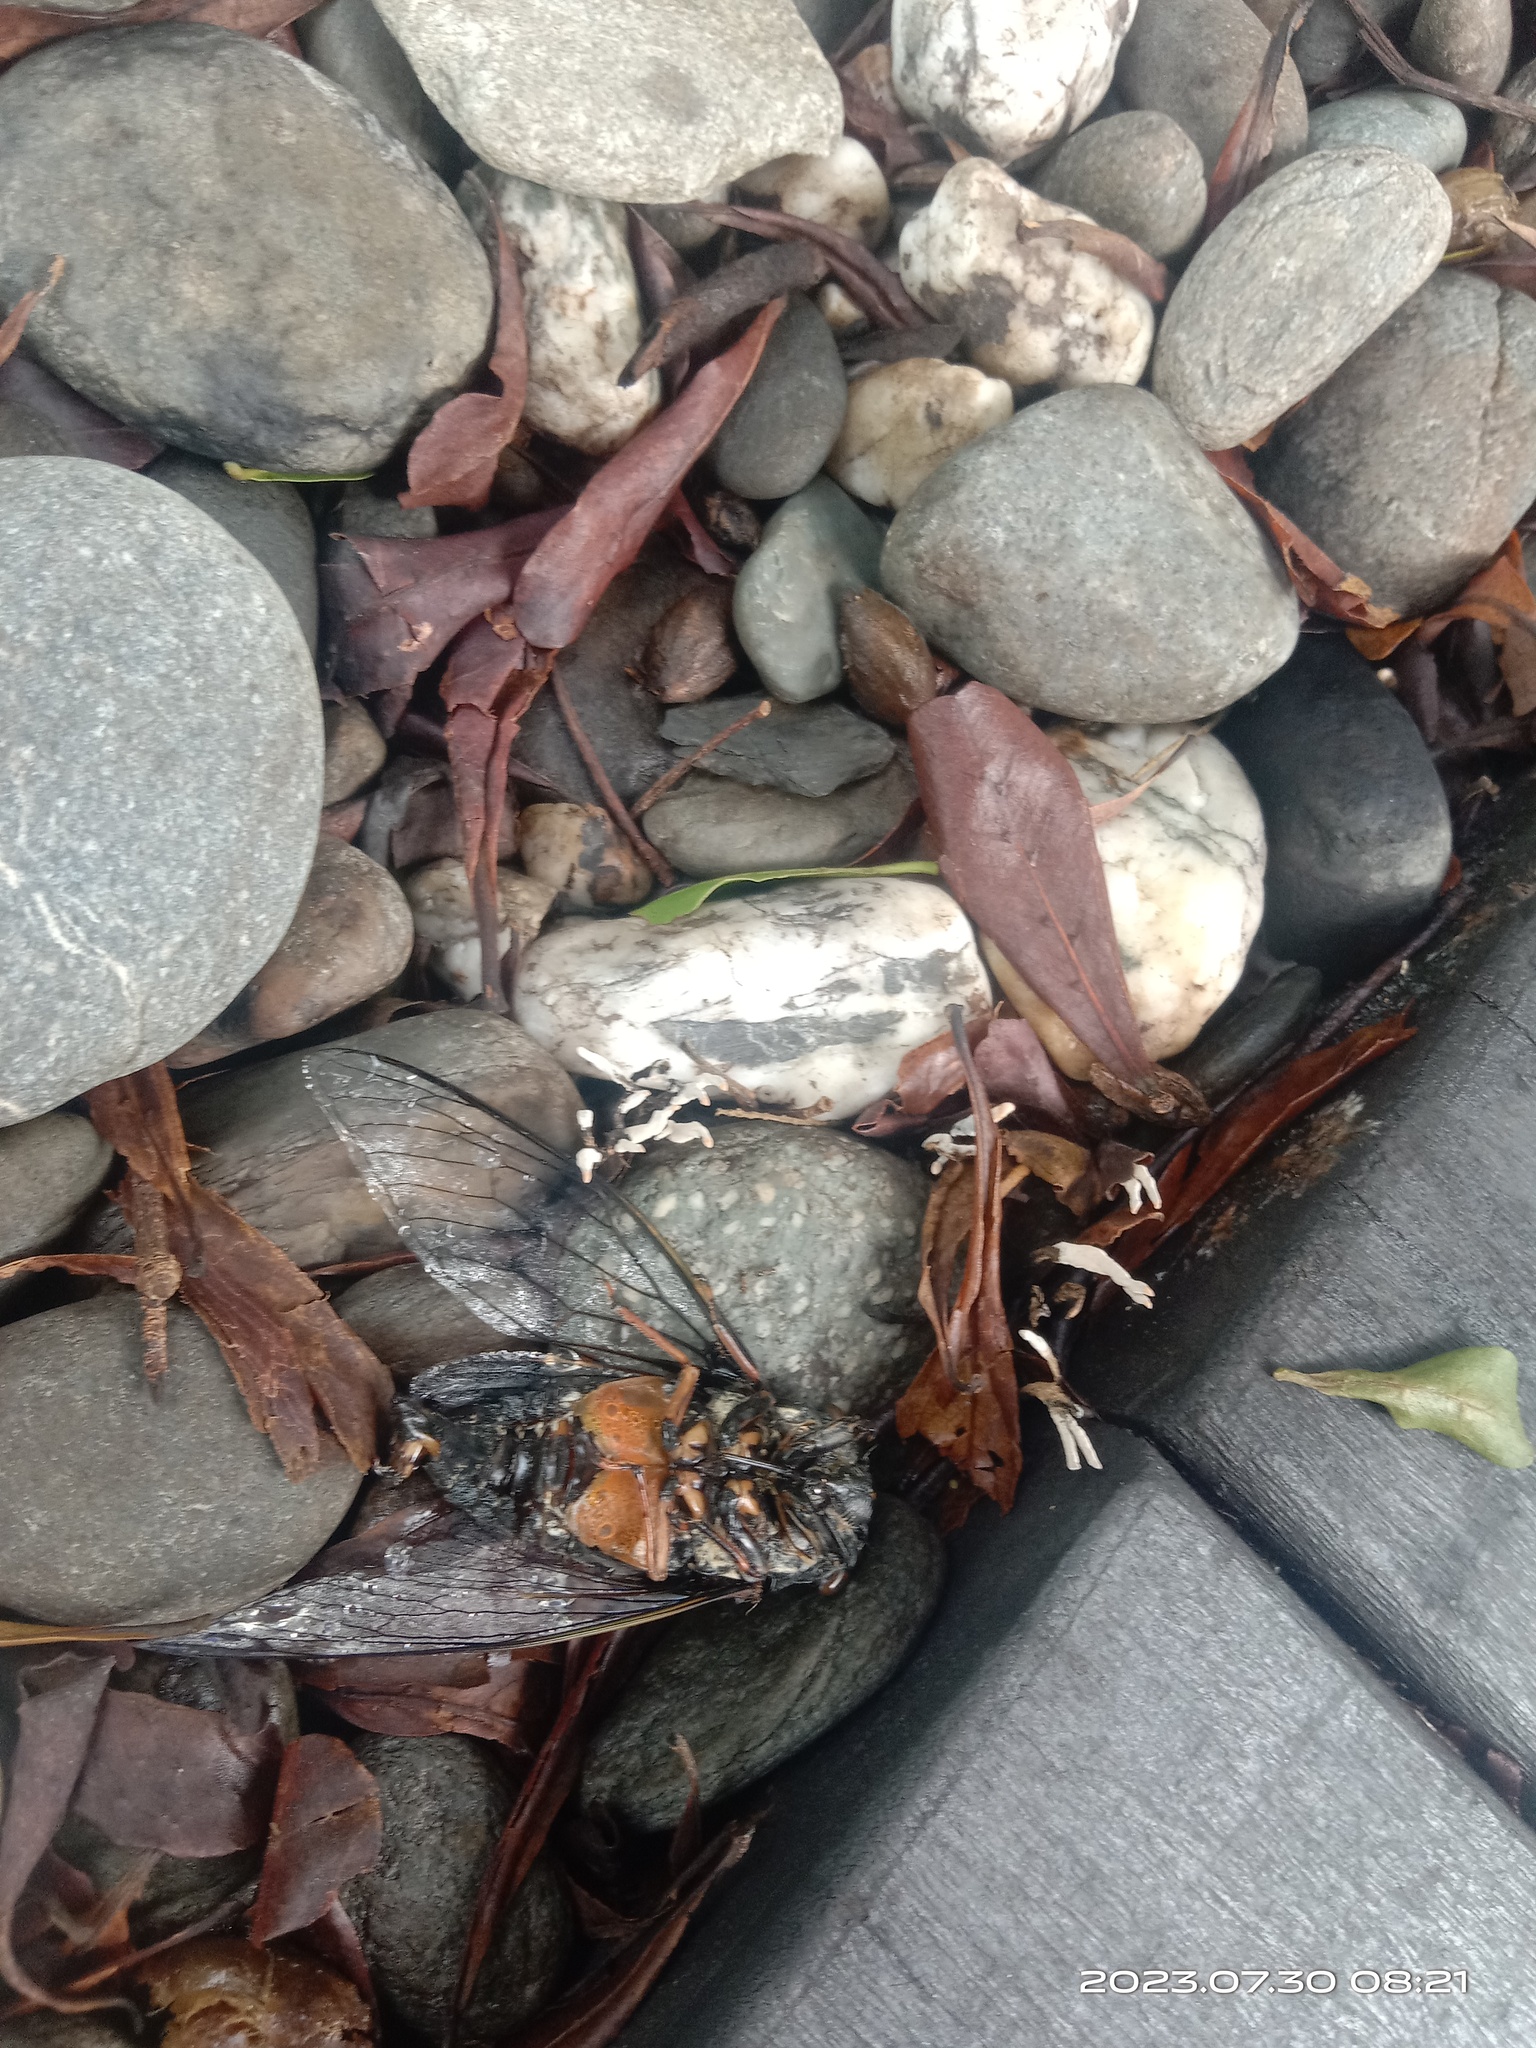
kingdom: Animalia
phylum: Arthropoda
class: Insecta
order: Hemiptera
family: Cicadidae
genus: Cryptotympana
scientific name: Cryptotympana takasagona
